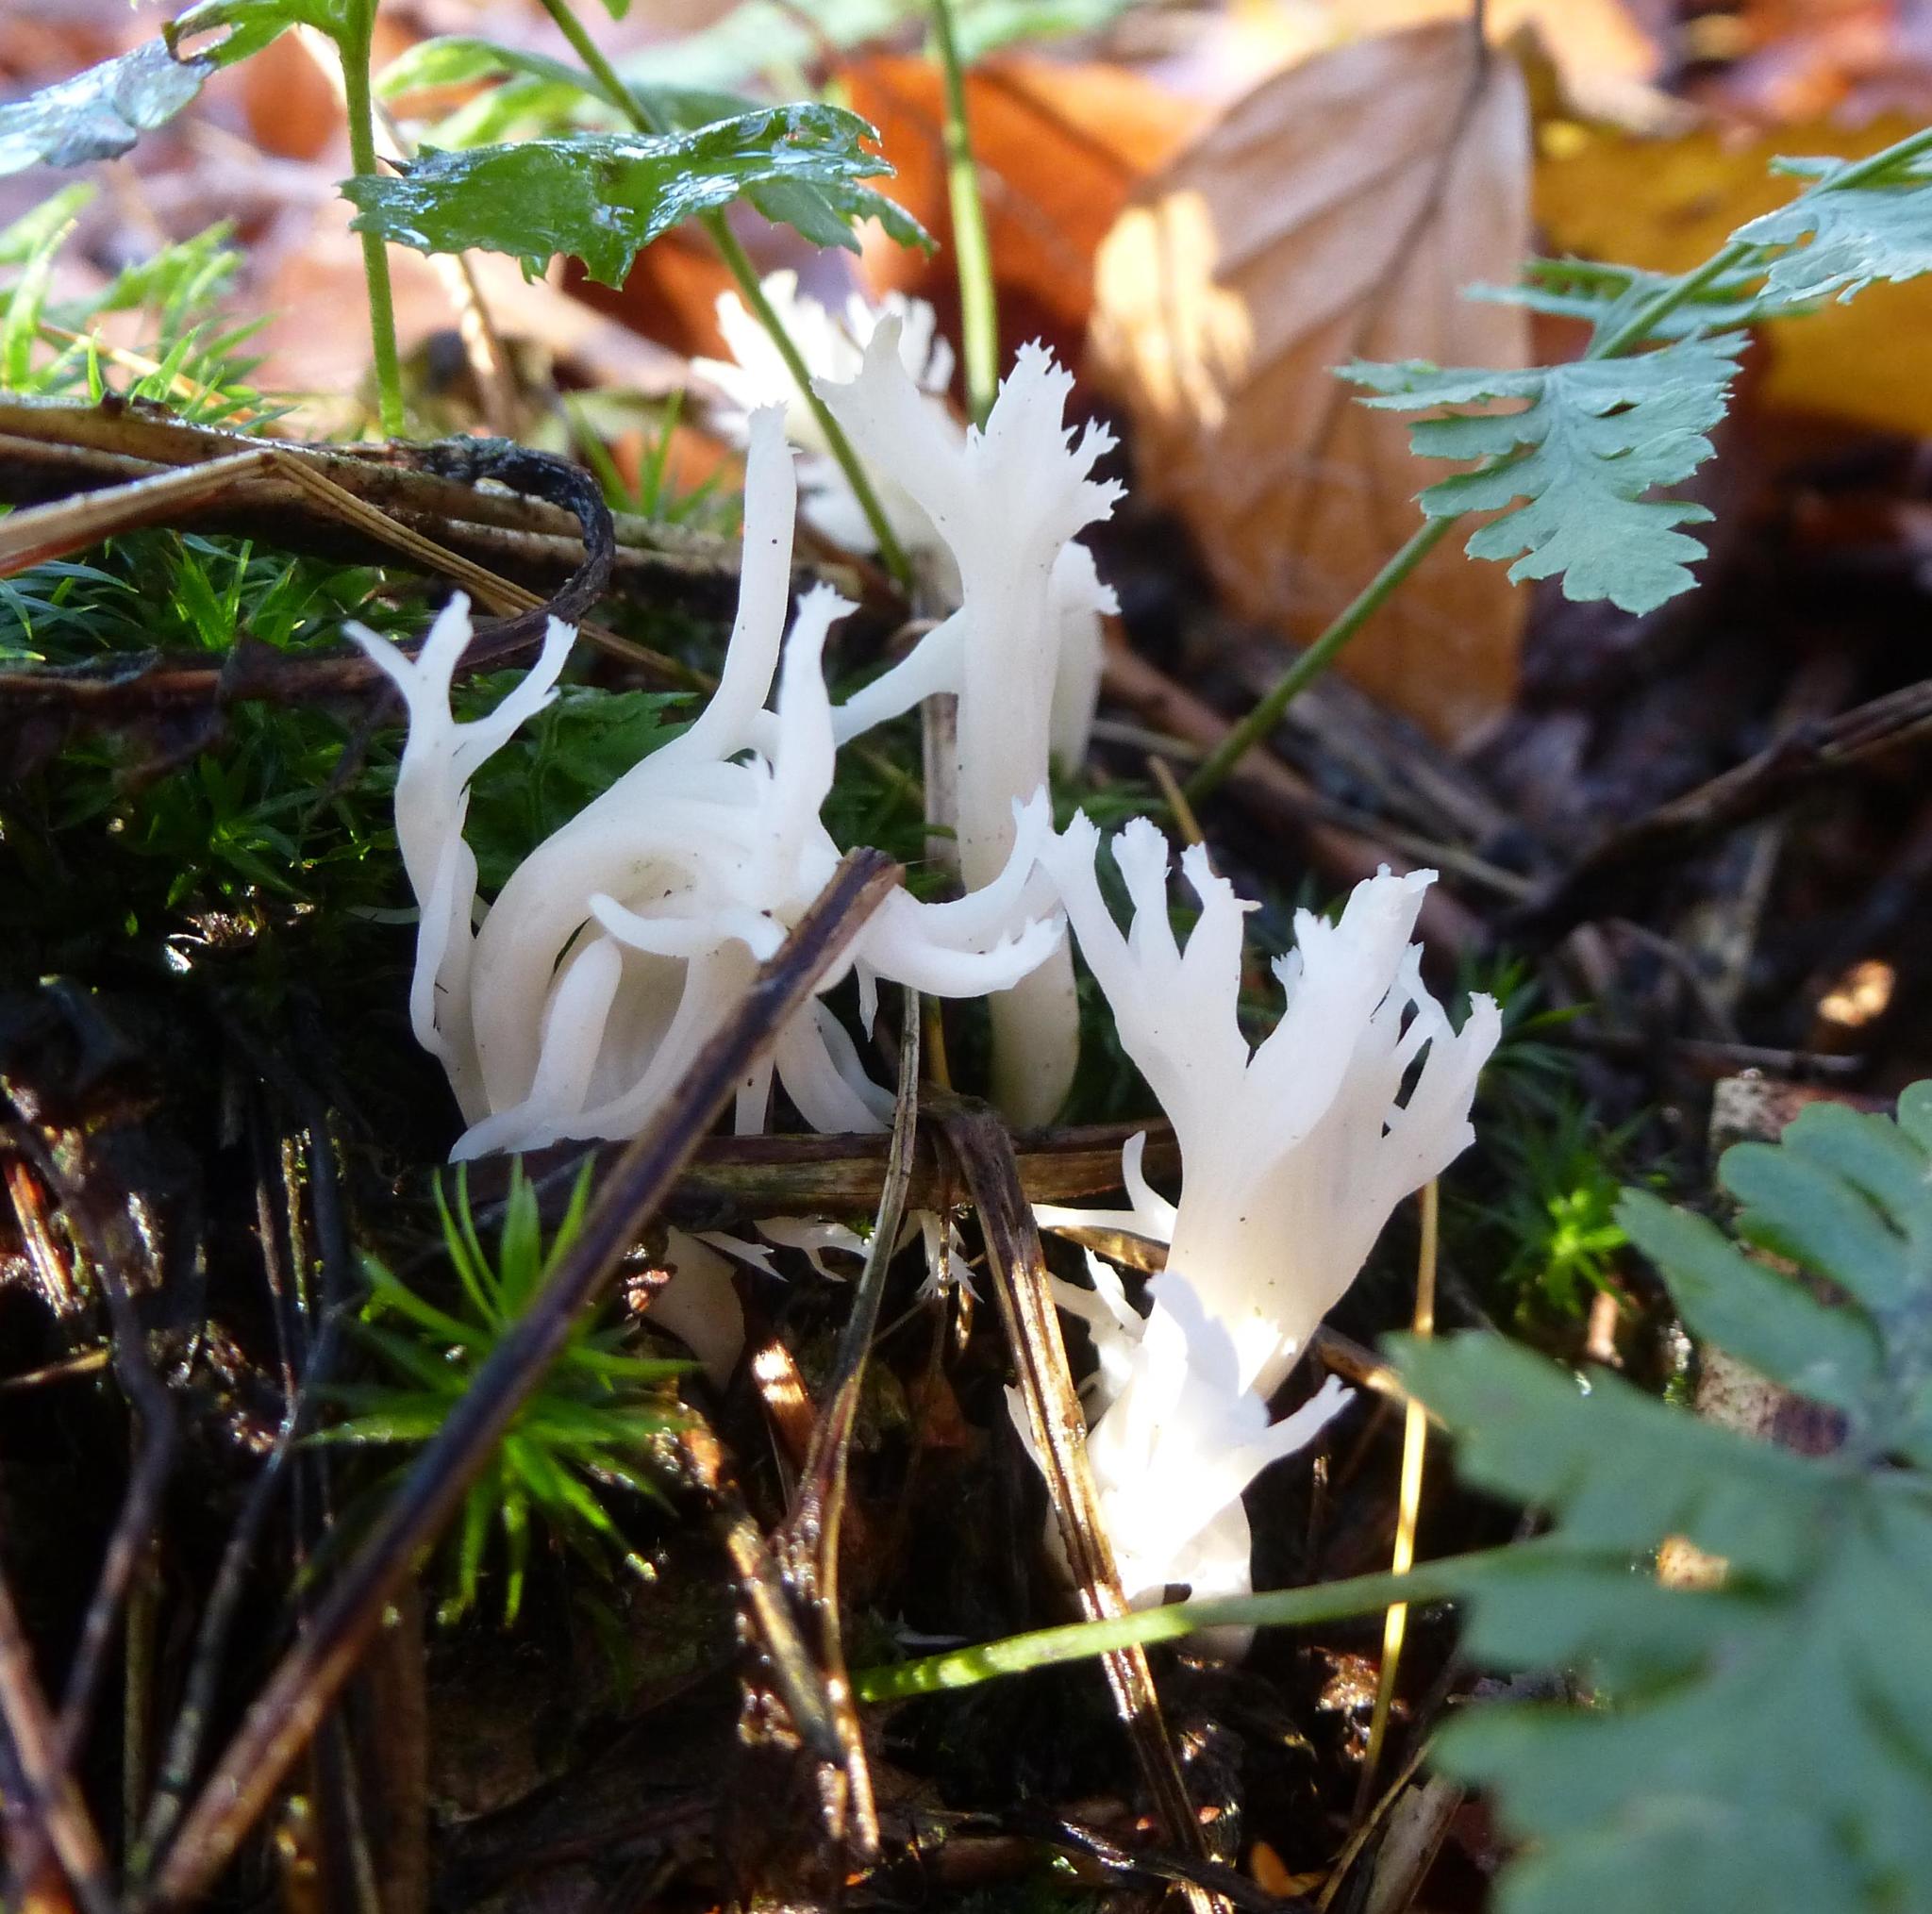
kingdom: Fungi
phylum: Basidiomycota
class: Agaricomycetes
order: Cantharellales
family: Hydnaceae
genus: Clavulina
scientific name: Clavulina coralloides
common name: Crested coral
